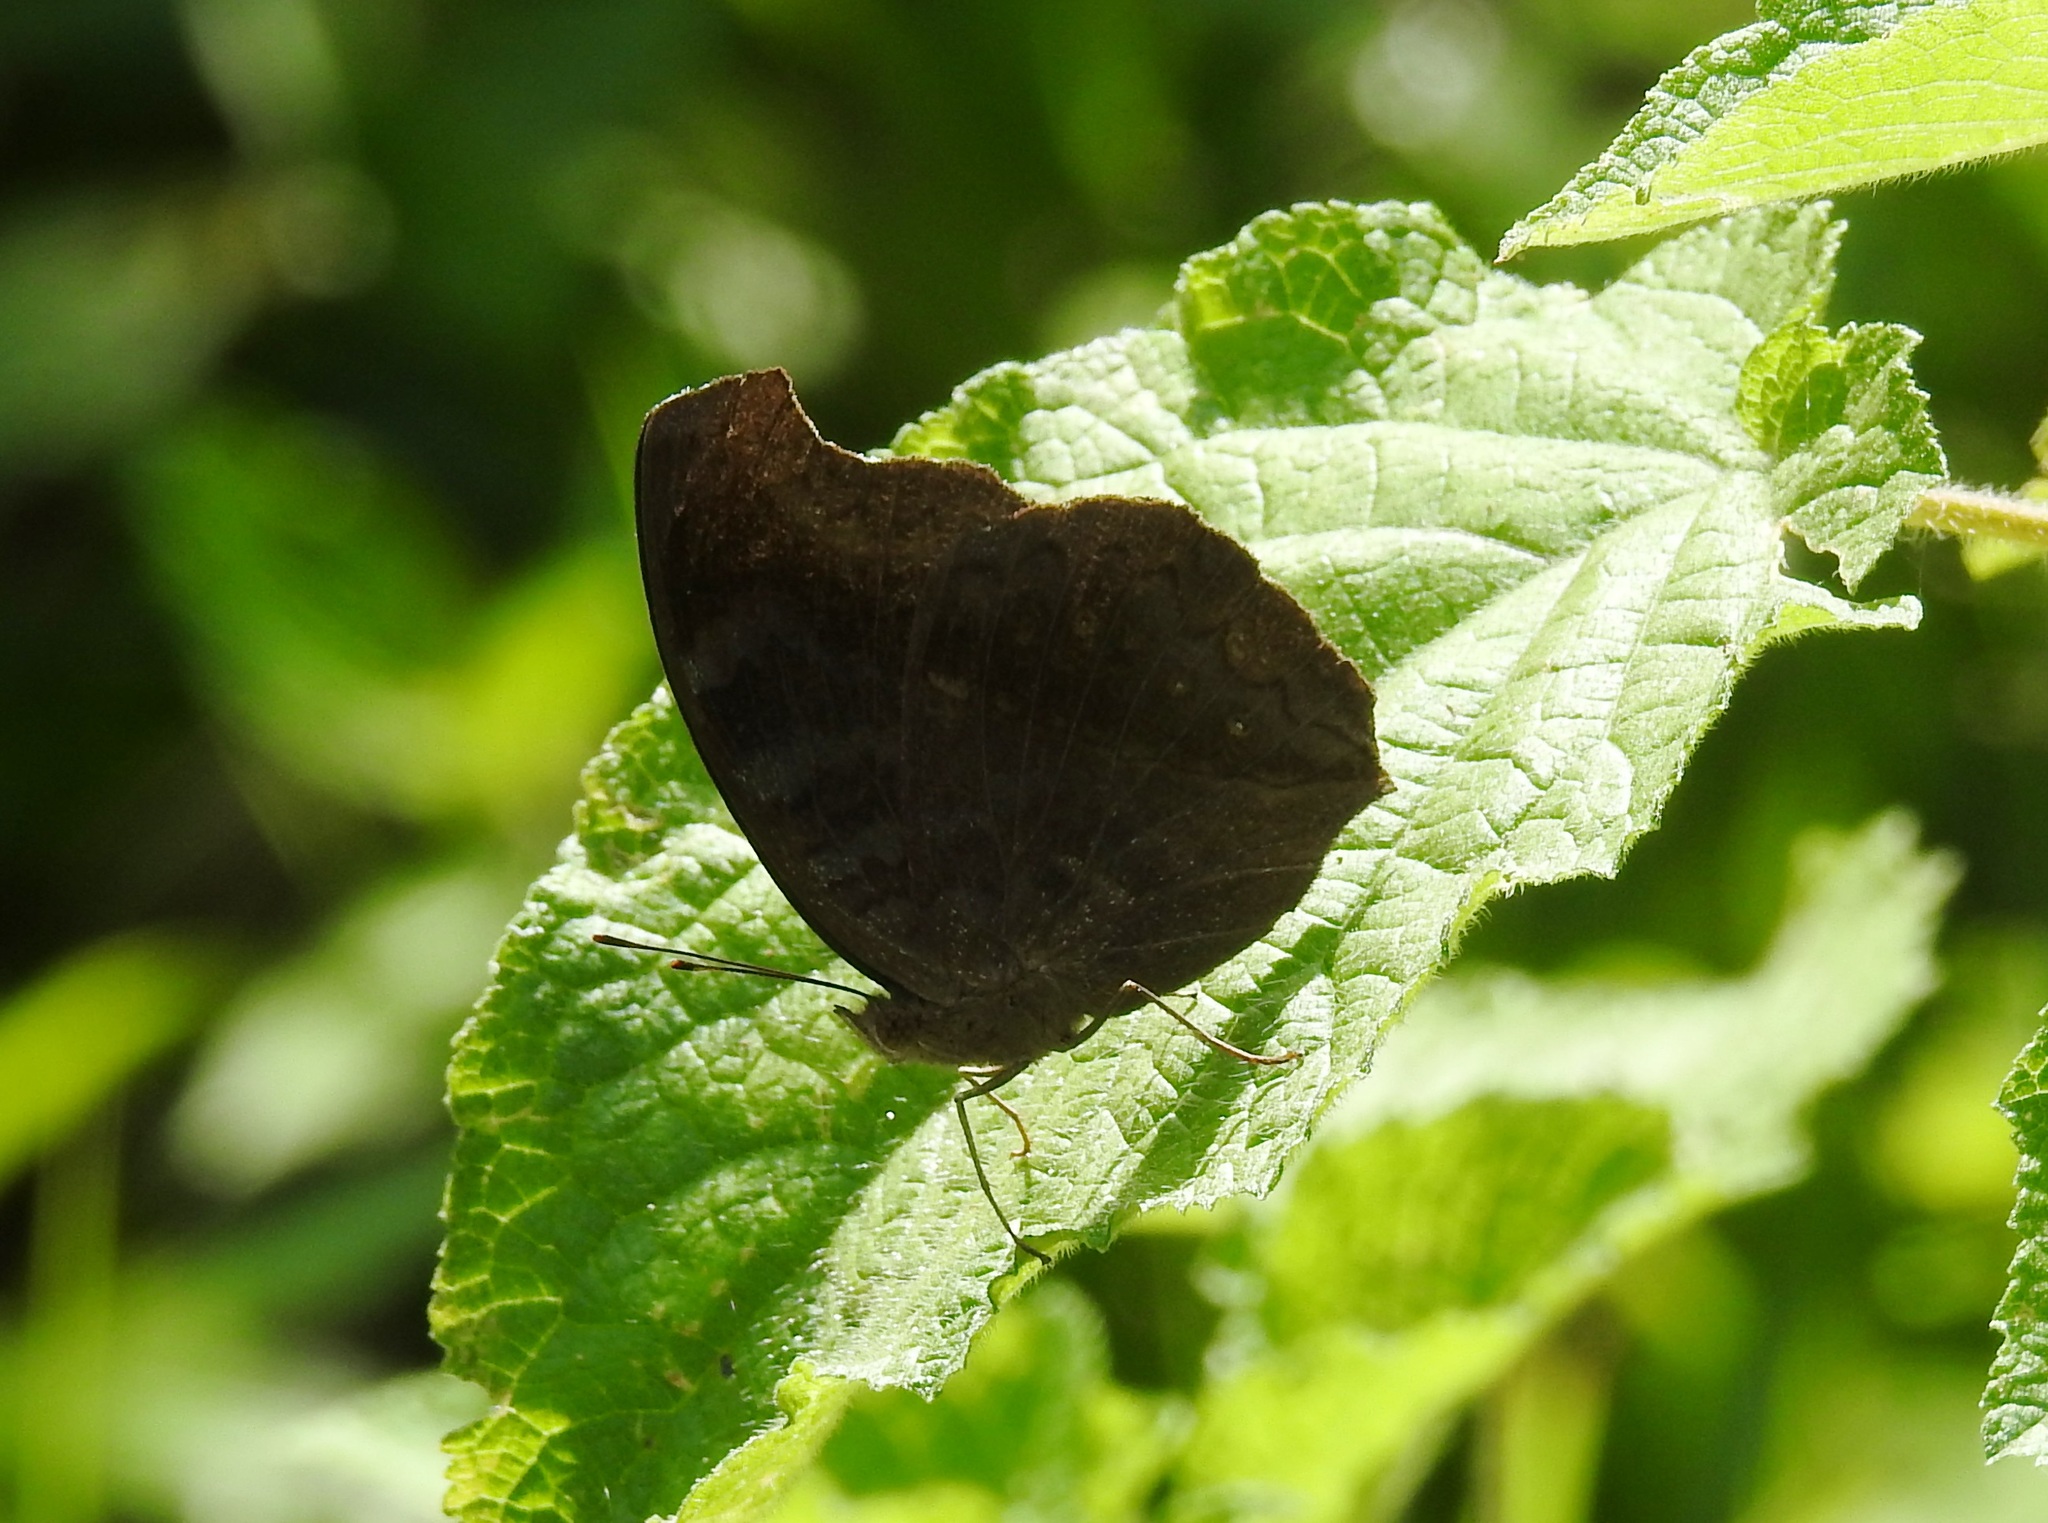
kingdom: Animalia
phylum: Arthropoda
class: Insecta
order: Lepidoptera
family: Nymphalidae
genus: Junonia
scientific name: Junonia iphita
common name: Chocolate pansy
